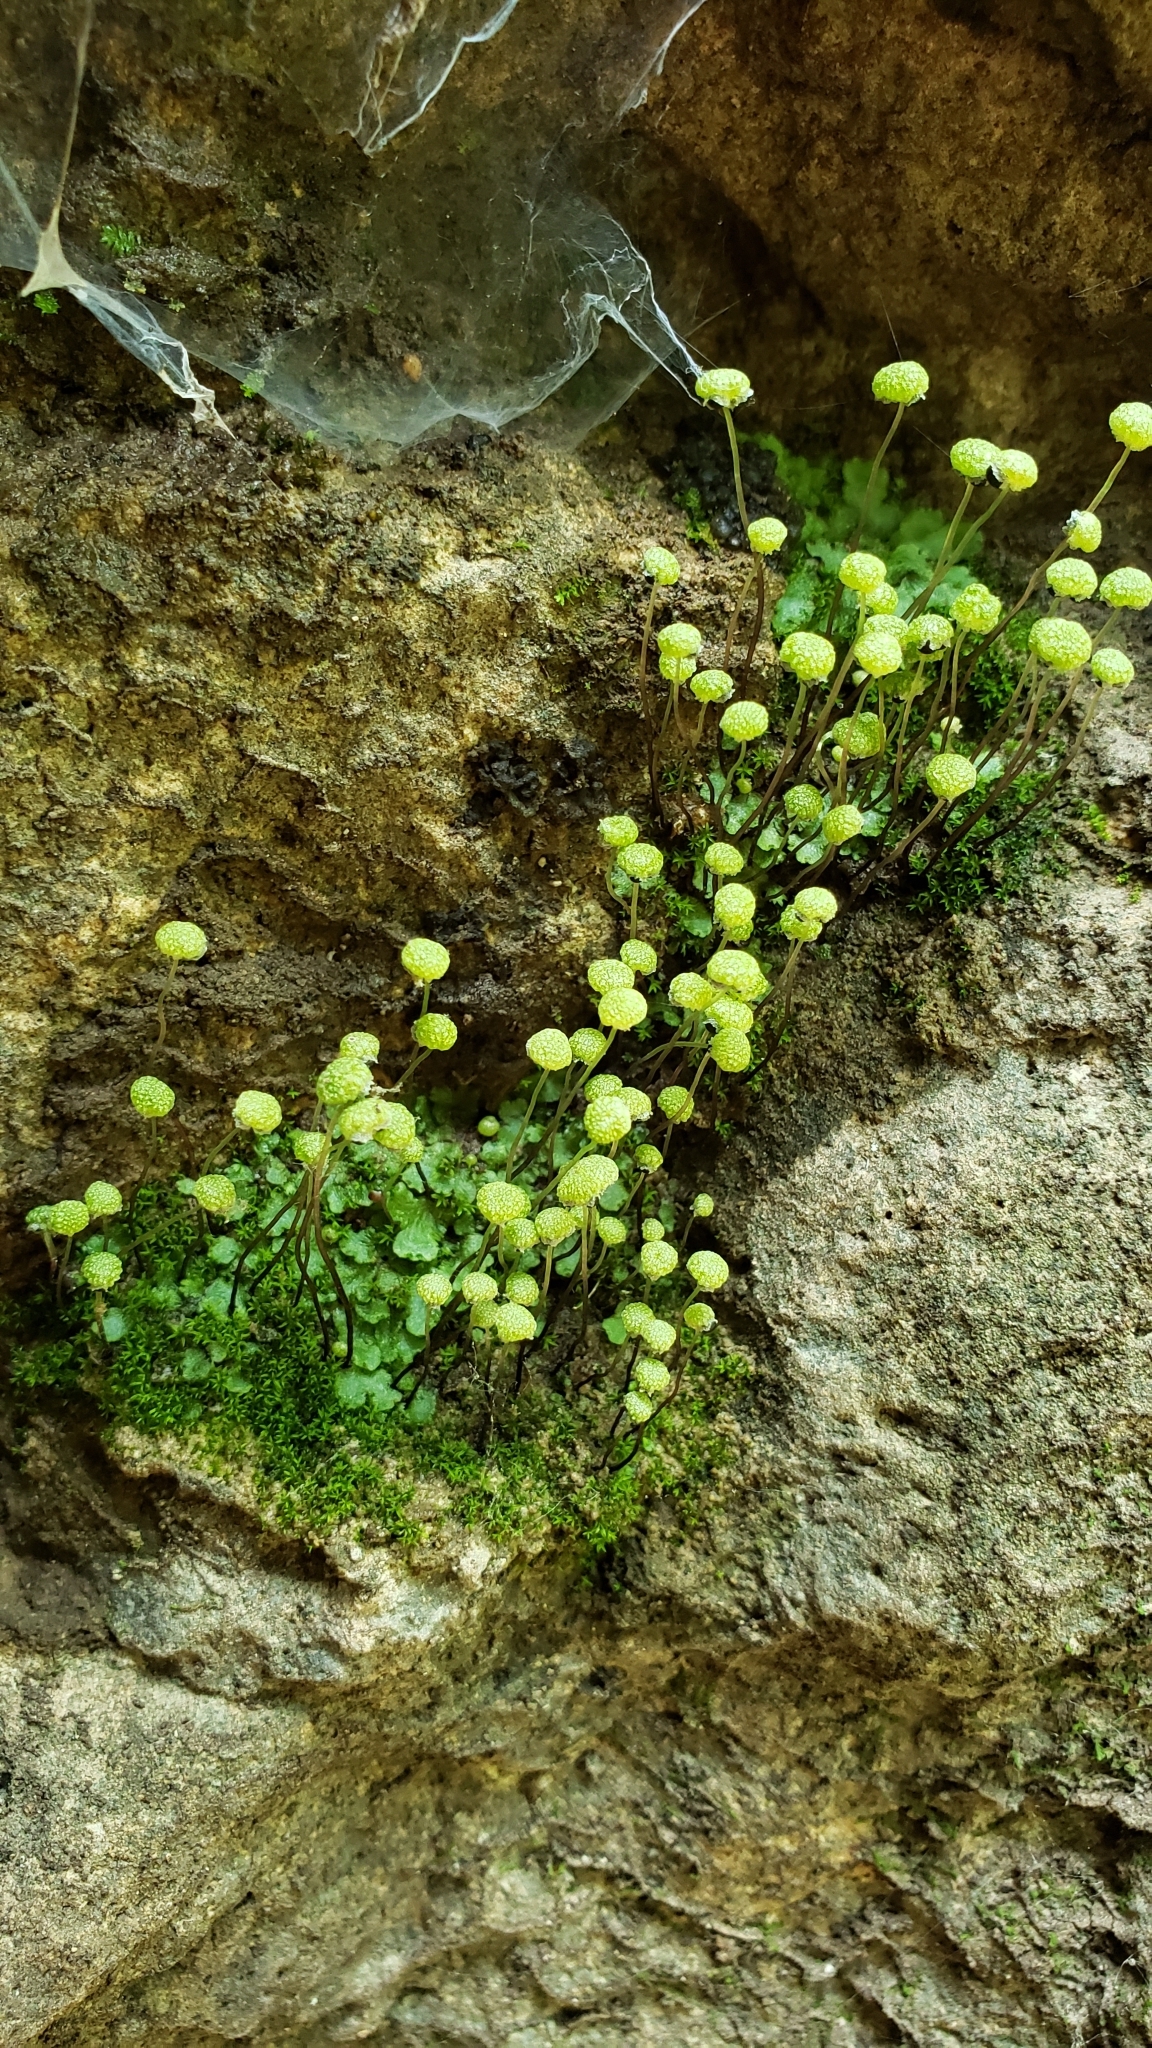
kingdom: Plantae
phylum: Marchantiophyta
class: Marchantiopsida
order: Marchantiales
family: Aytoniaceae
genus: Mannia
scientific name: Mannia triandra
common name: Field macewort
